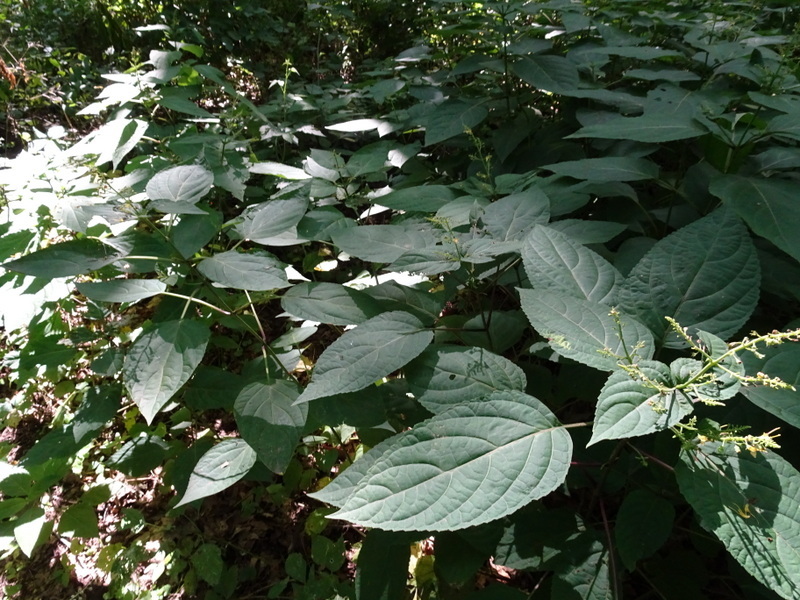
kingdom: Plantae
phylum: Tracheophyta
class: Magnoliopsida
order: Lamiales
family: Lamiaceae
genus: Collinsonia
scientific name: Collinsonia canadensis
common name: Northern horsebalm
